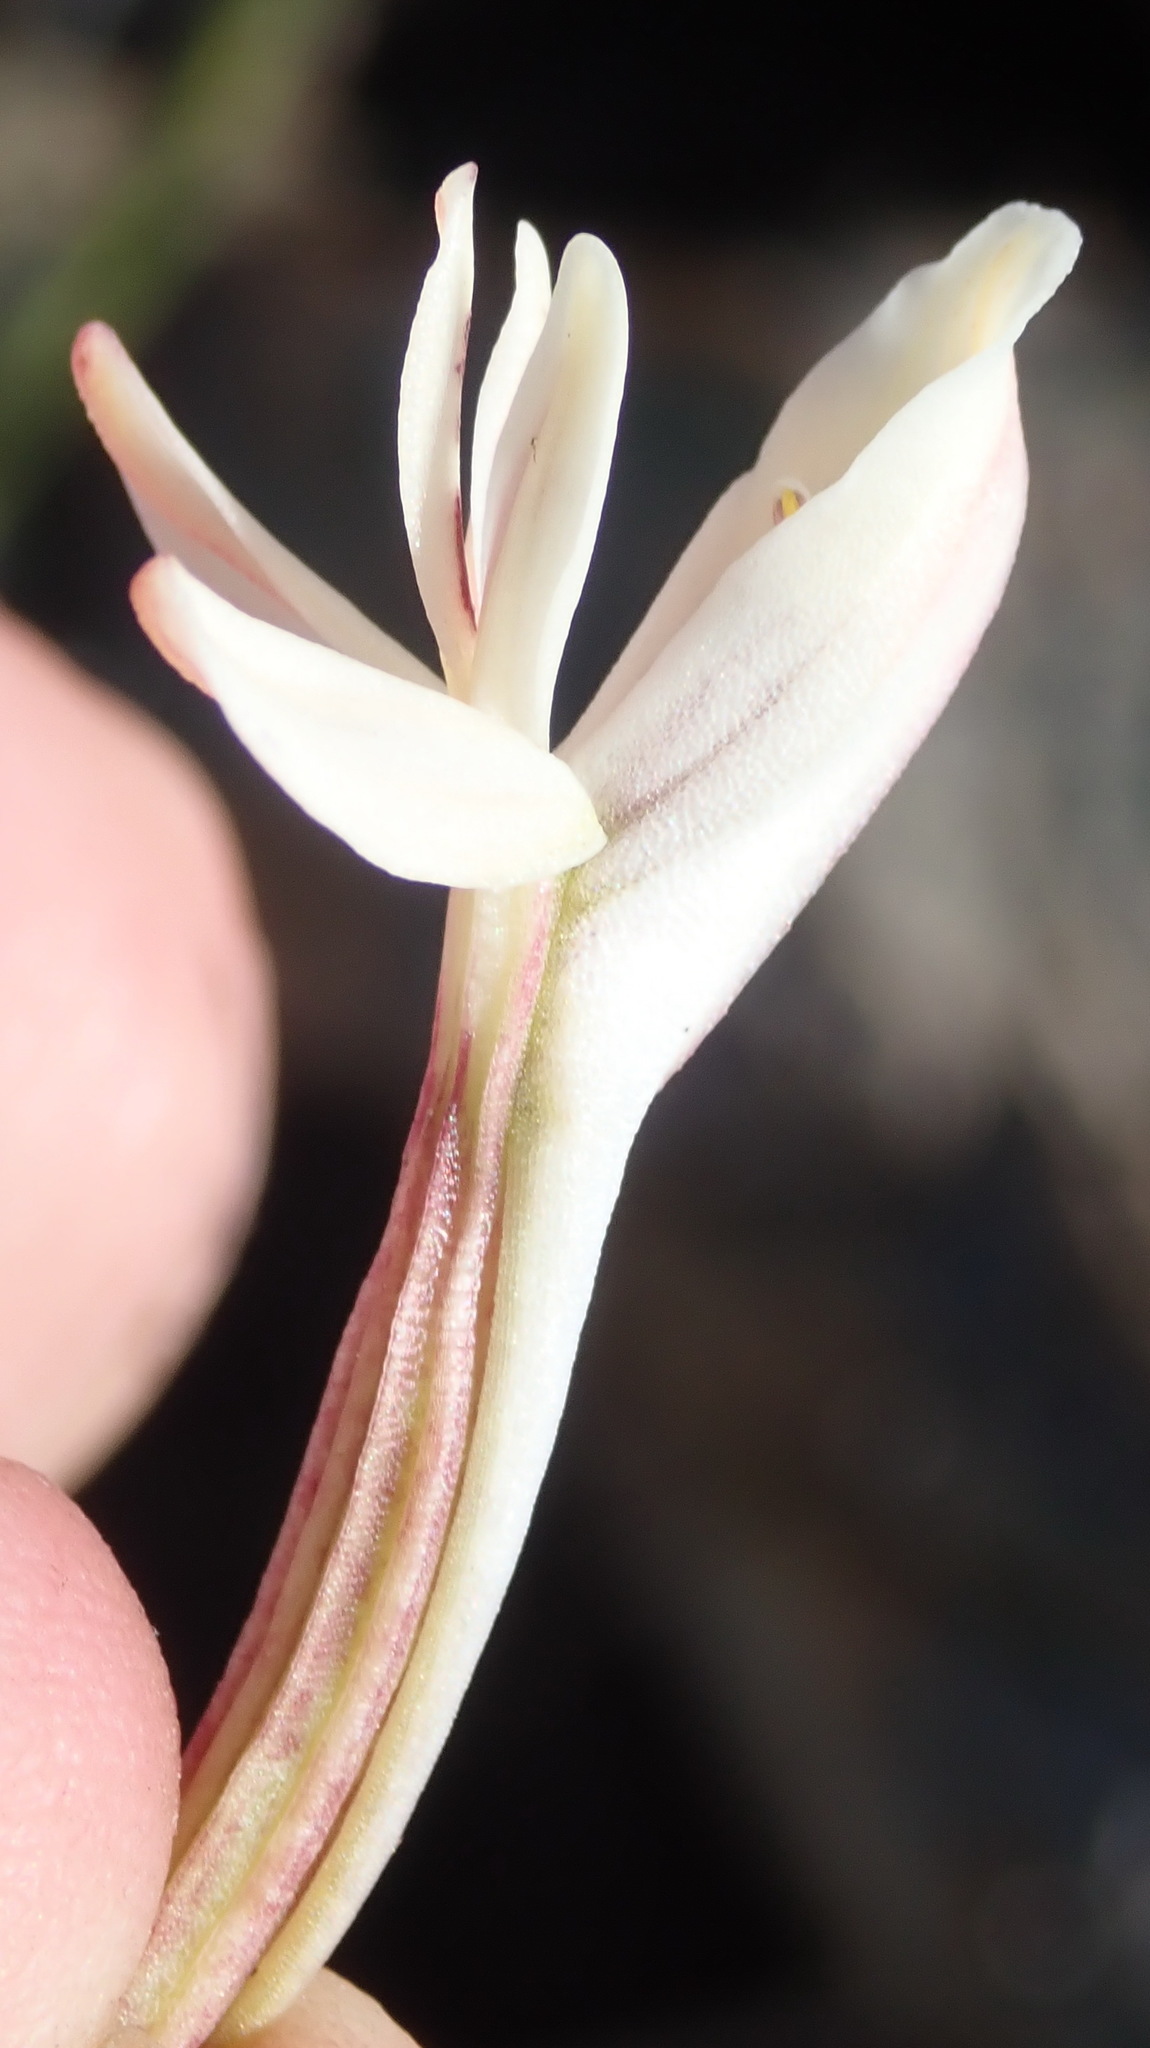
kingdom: Plantae
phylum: Tracheophyta
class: Liliopsida
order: Asparagales
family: Orchidaceae
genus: Satyrium
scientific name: Satyrium longicolle
